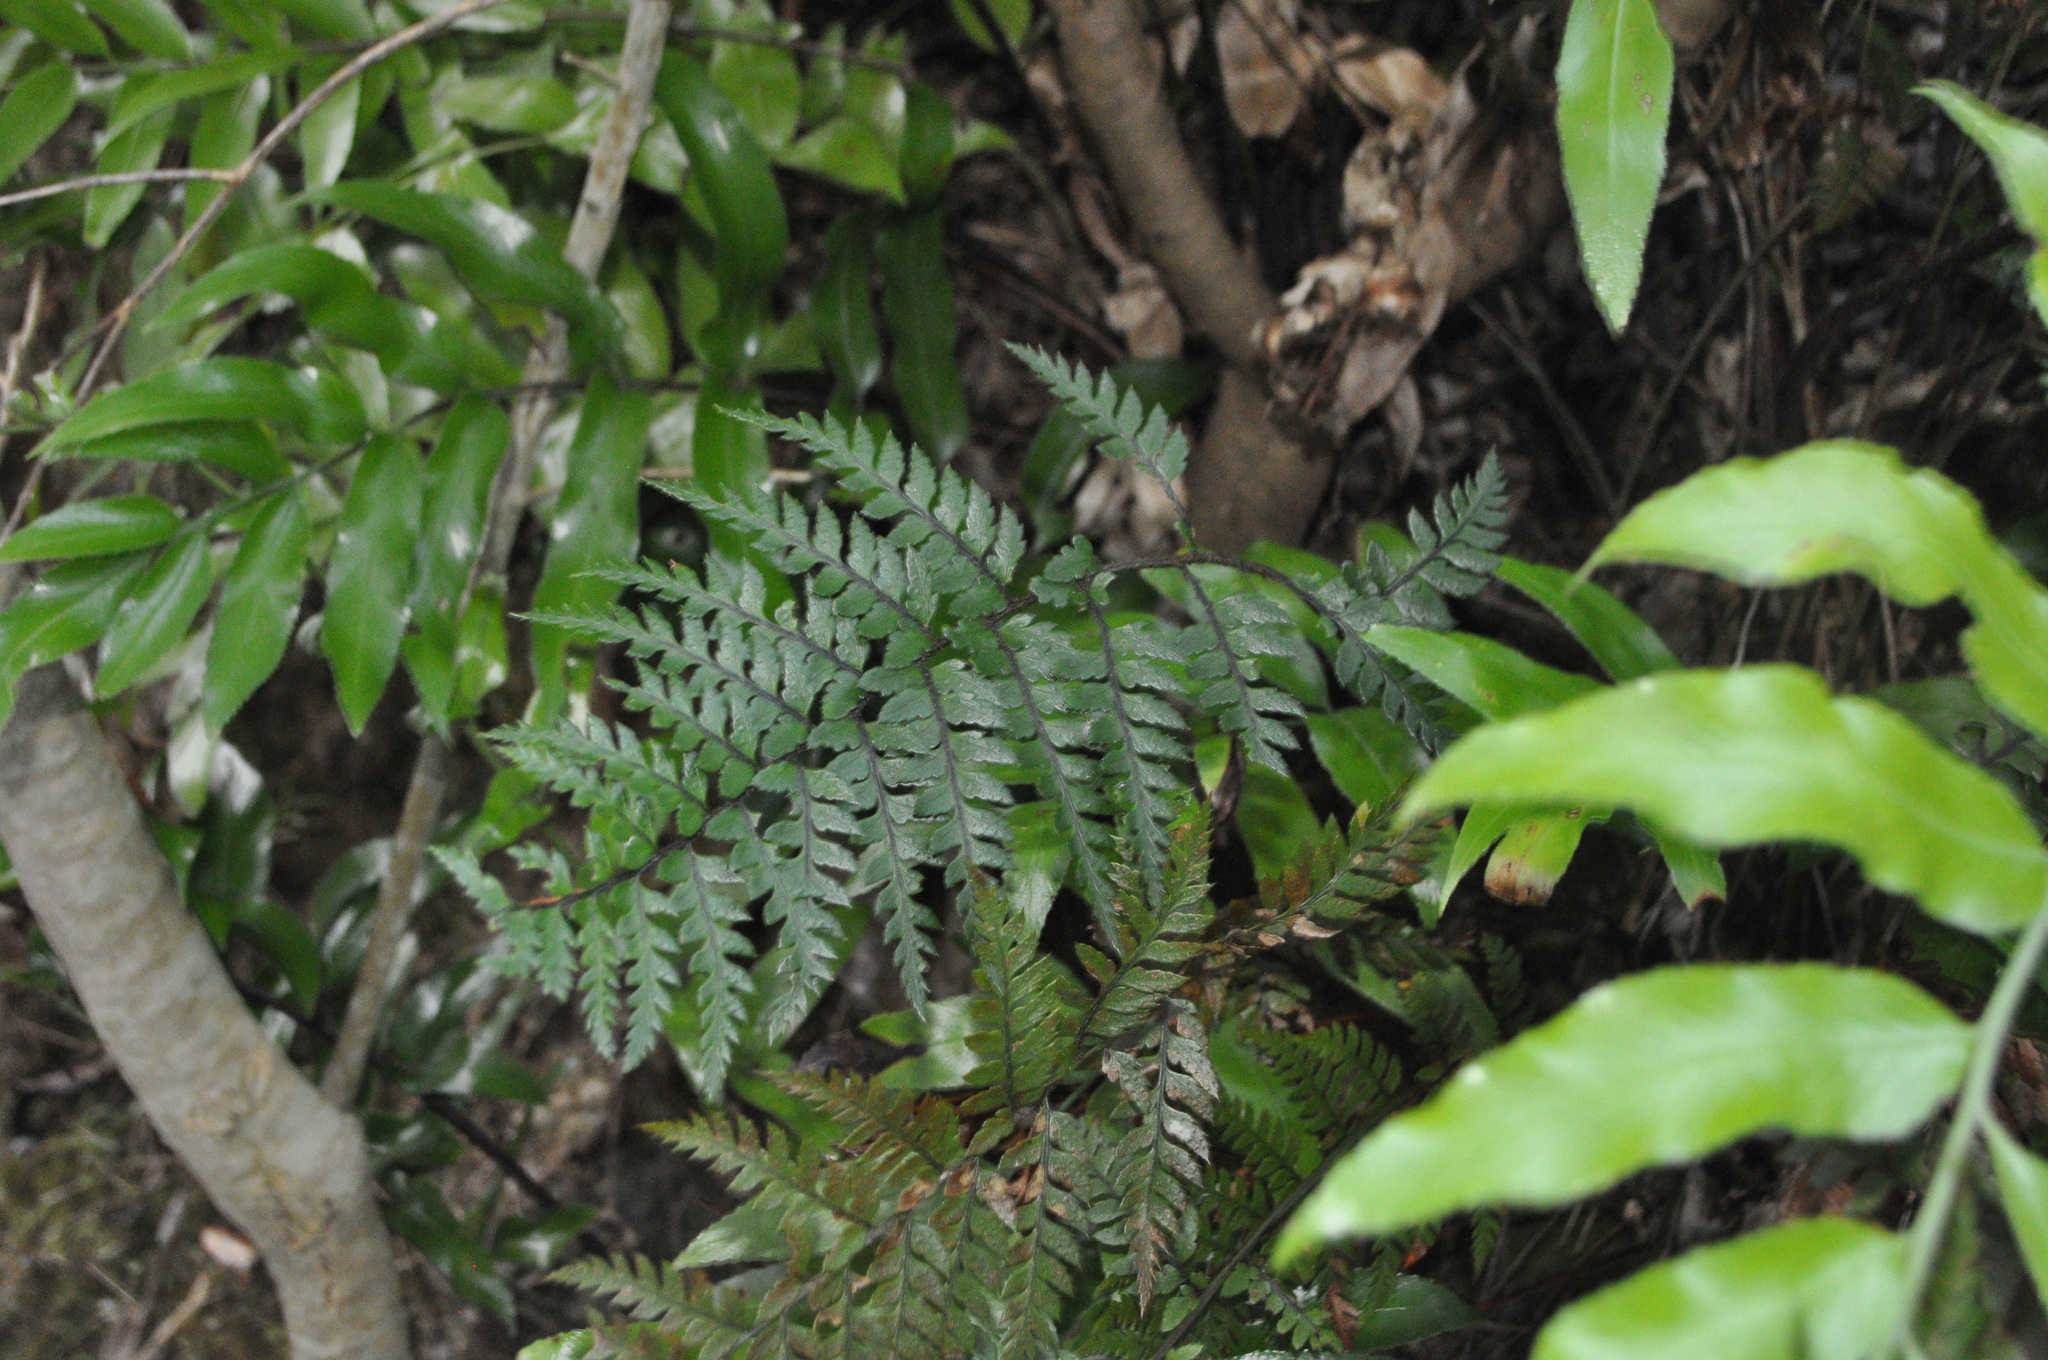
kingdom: Plantae
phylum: Tracheophyta
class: Polypodiopsida
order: Polypodiales
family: Dryopteridaceae
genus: Polystichum
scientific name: Polystichum neozelandicum
